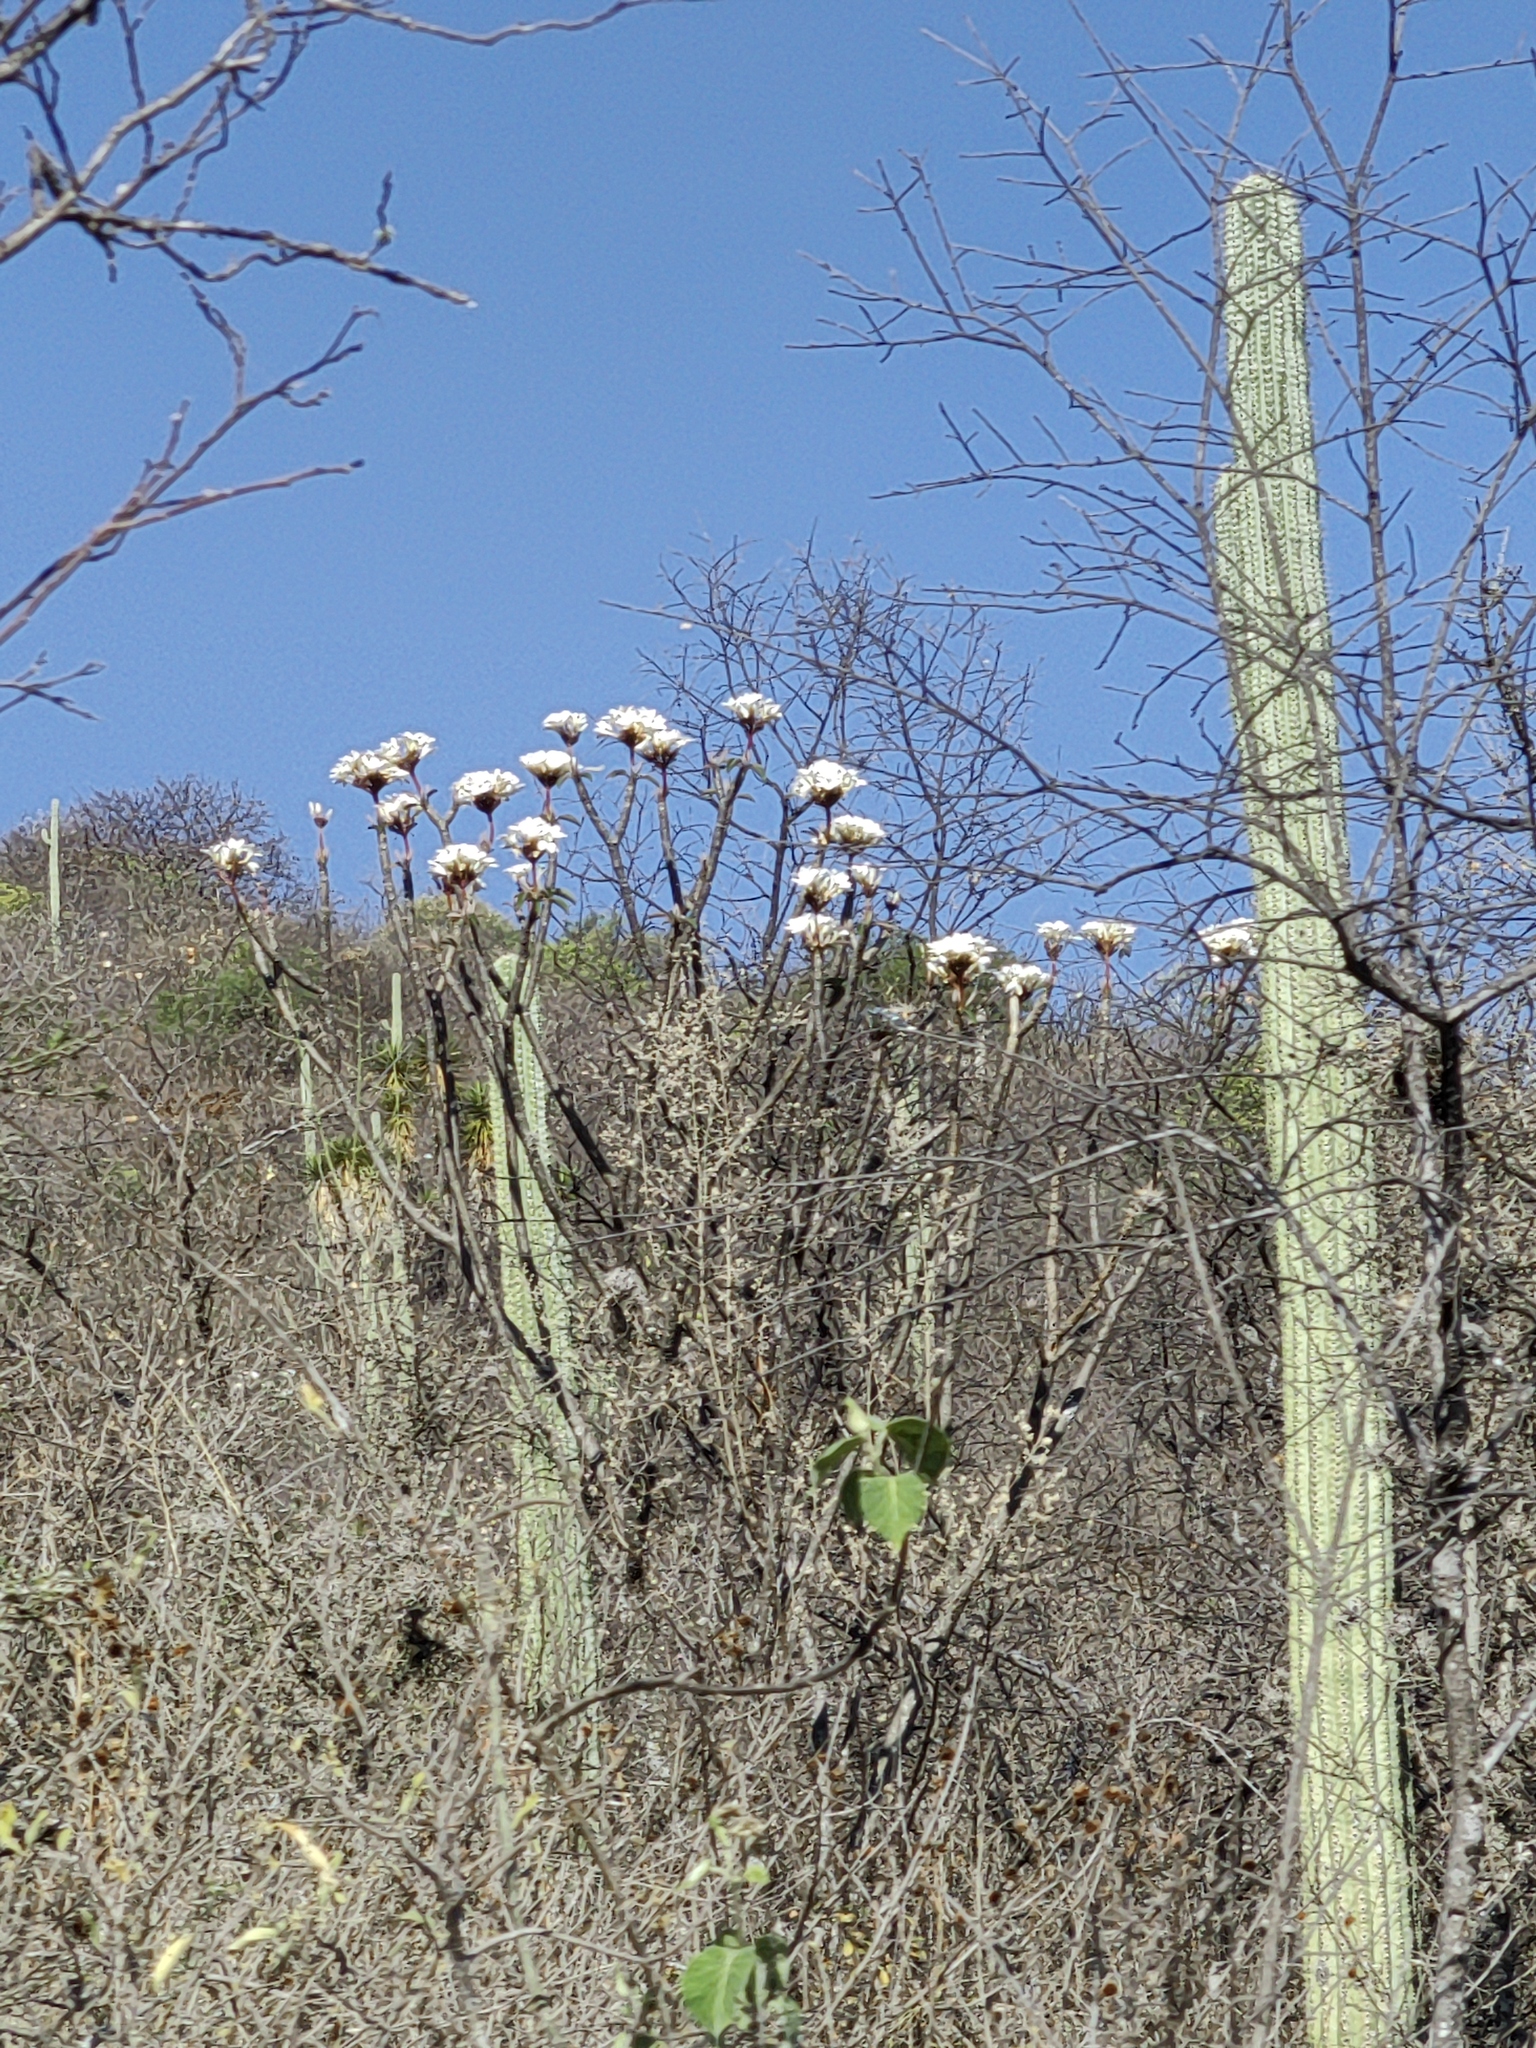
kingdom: Plantae
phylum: Tracheophyta
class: Magnoliopsida
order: Gentianales
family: Apocynaceae
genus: Plumeria
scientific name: Plumeria rubra
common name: Pagoda-tree
